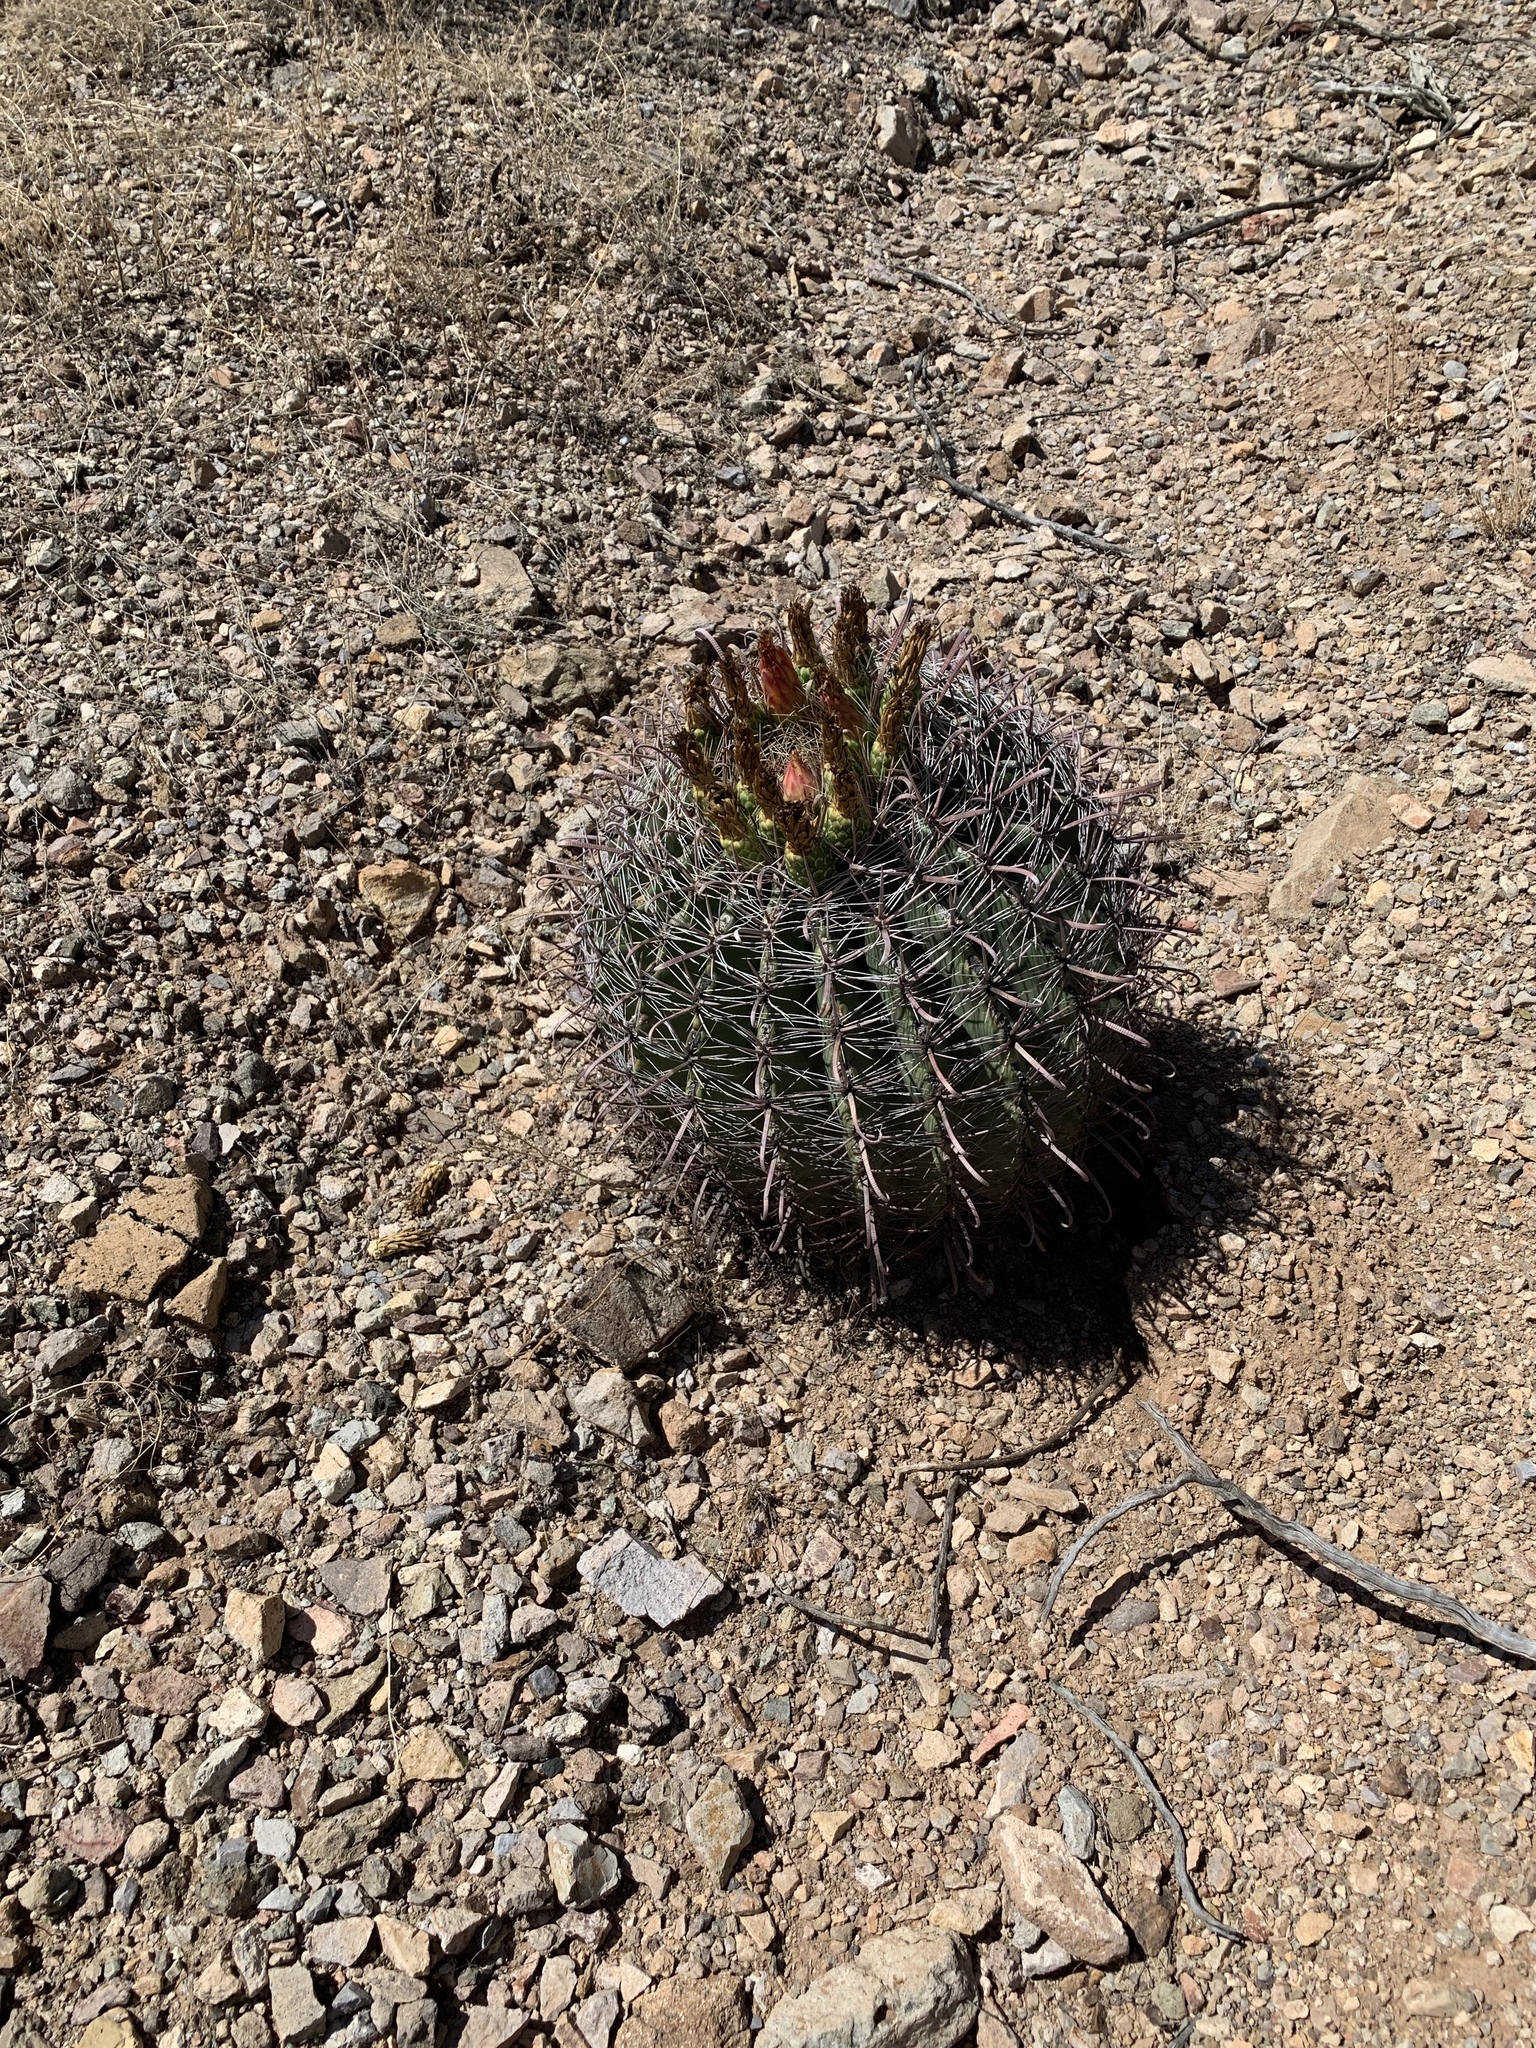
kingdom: Plantae
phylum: Tracheophyta
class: Magnoliopsida
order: Caryophyllales
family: Cactaceae
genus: Ferocactus
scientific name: Ferocactus wislizeni
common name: Candy barrel cactus
